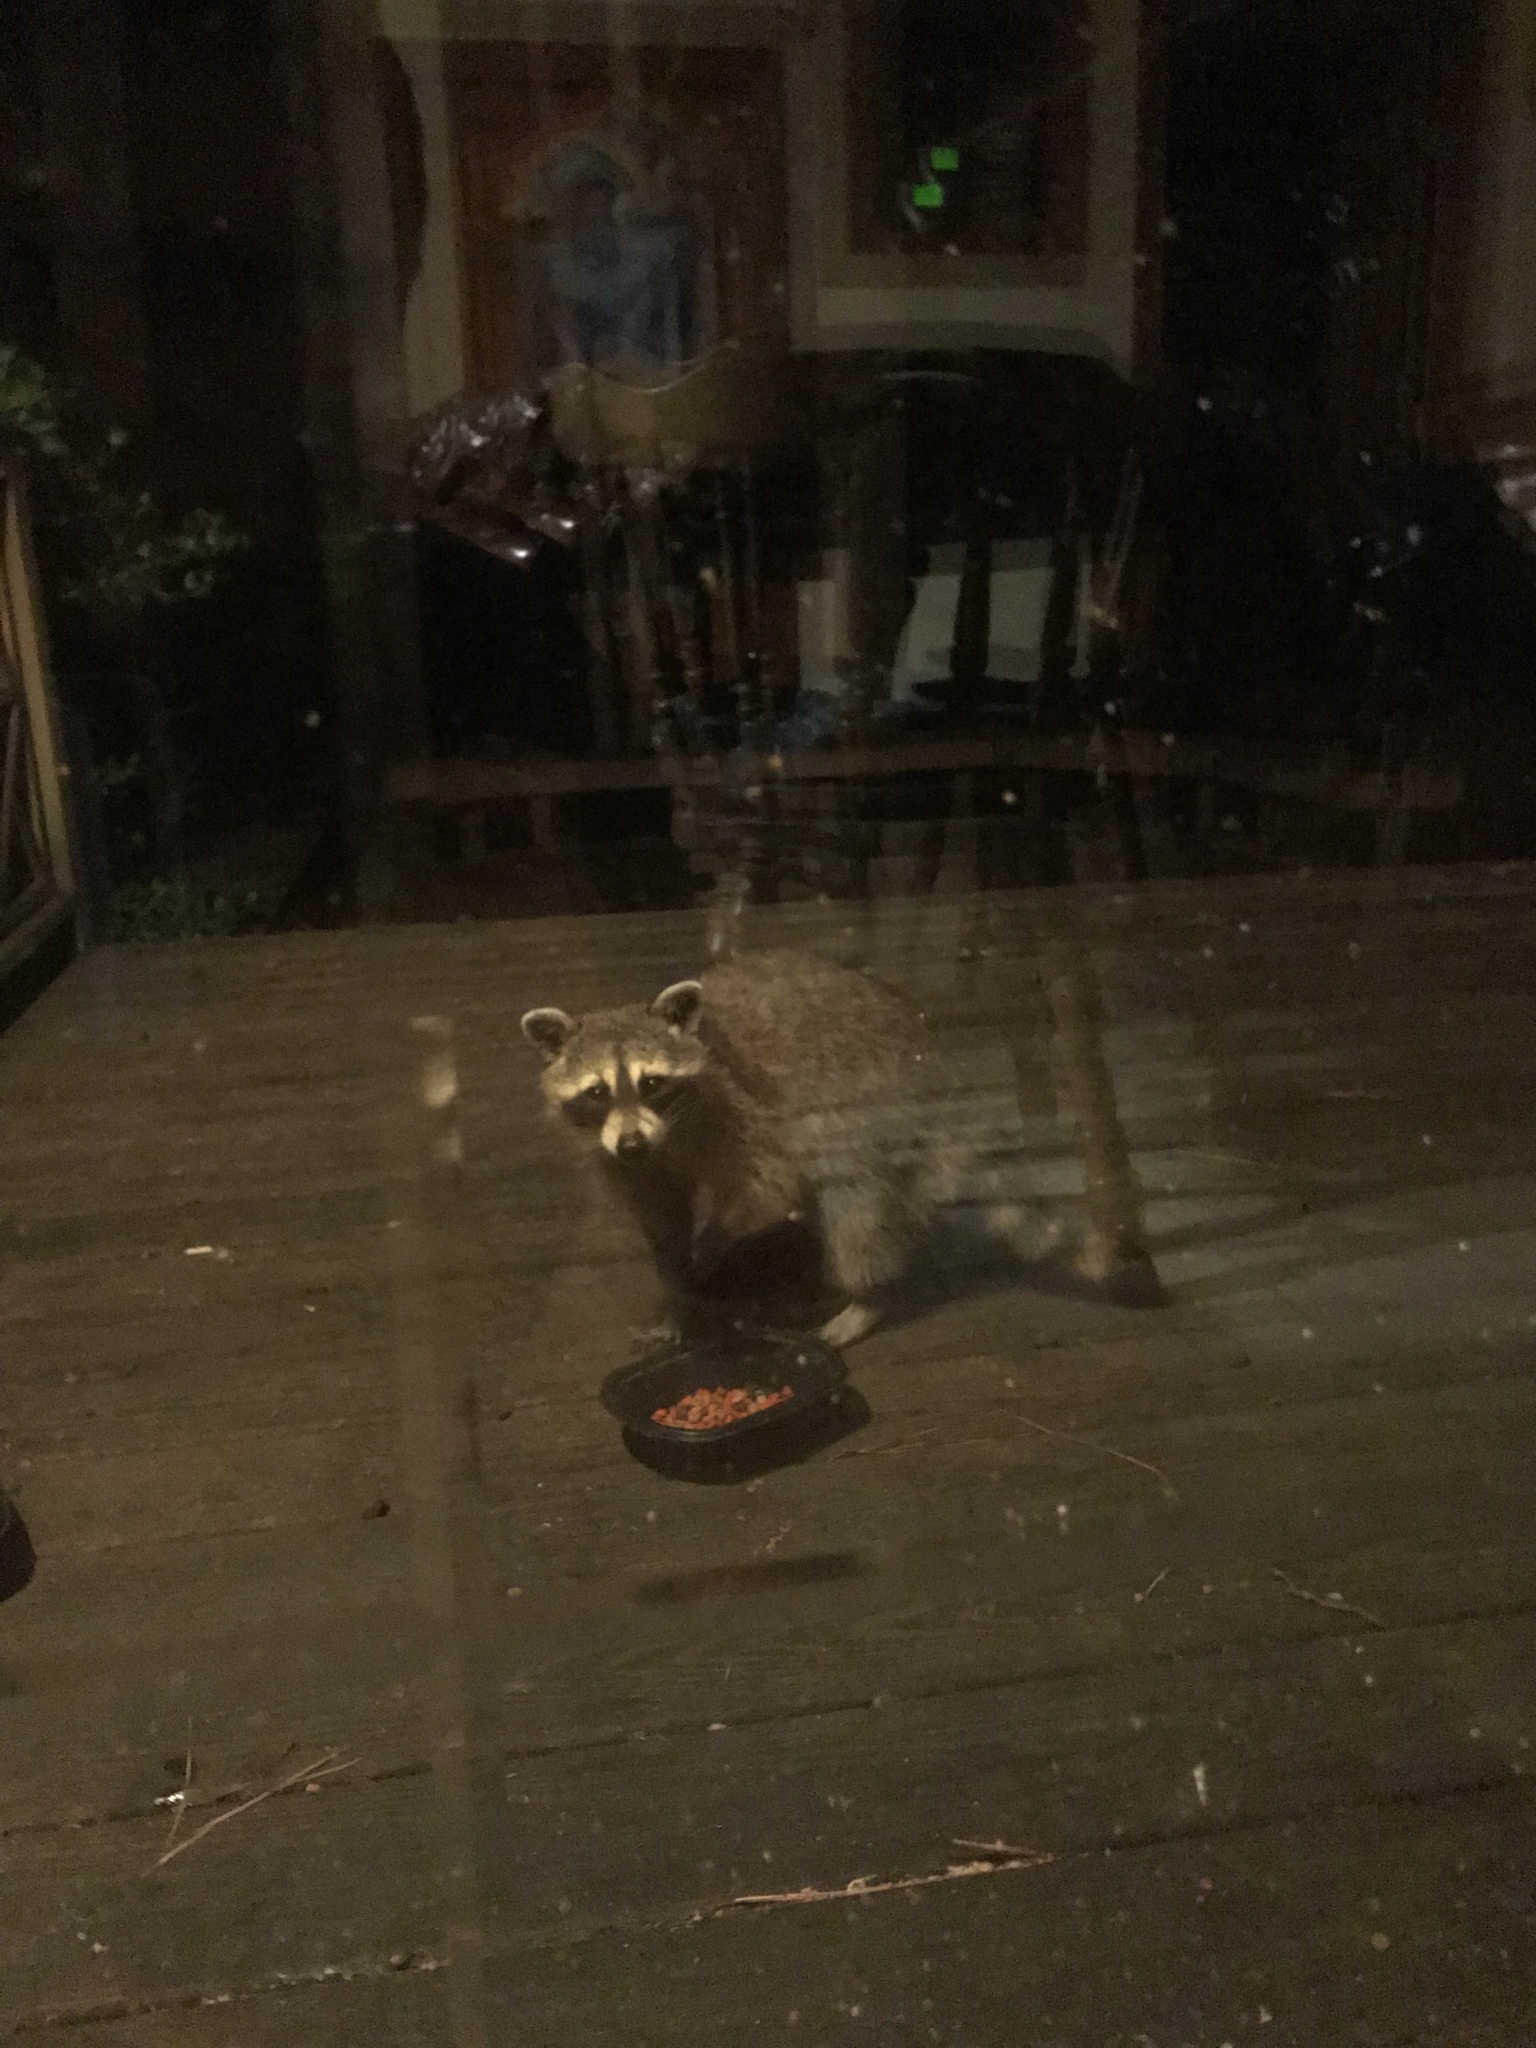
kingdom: Animalia
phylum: Chordata
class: Mammalia
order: Carnivora
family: Procyonidae
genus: Procyon
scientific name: Procyon lotor
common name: Raccoon
